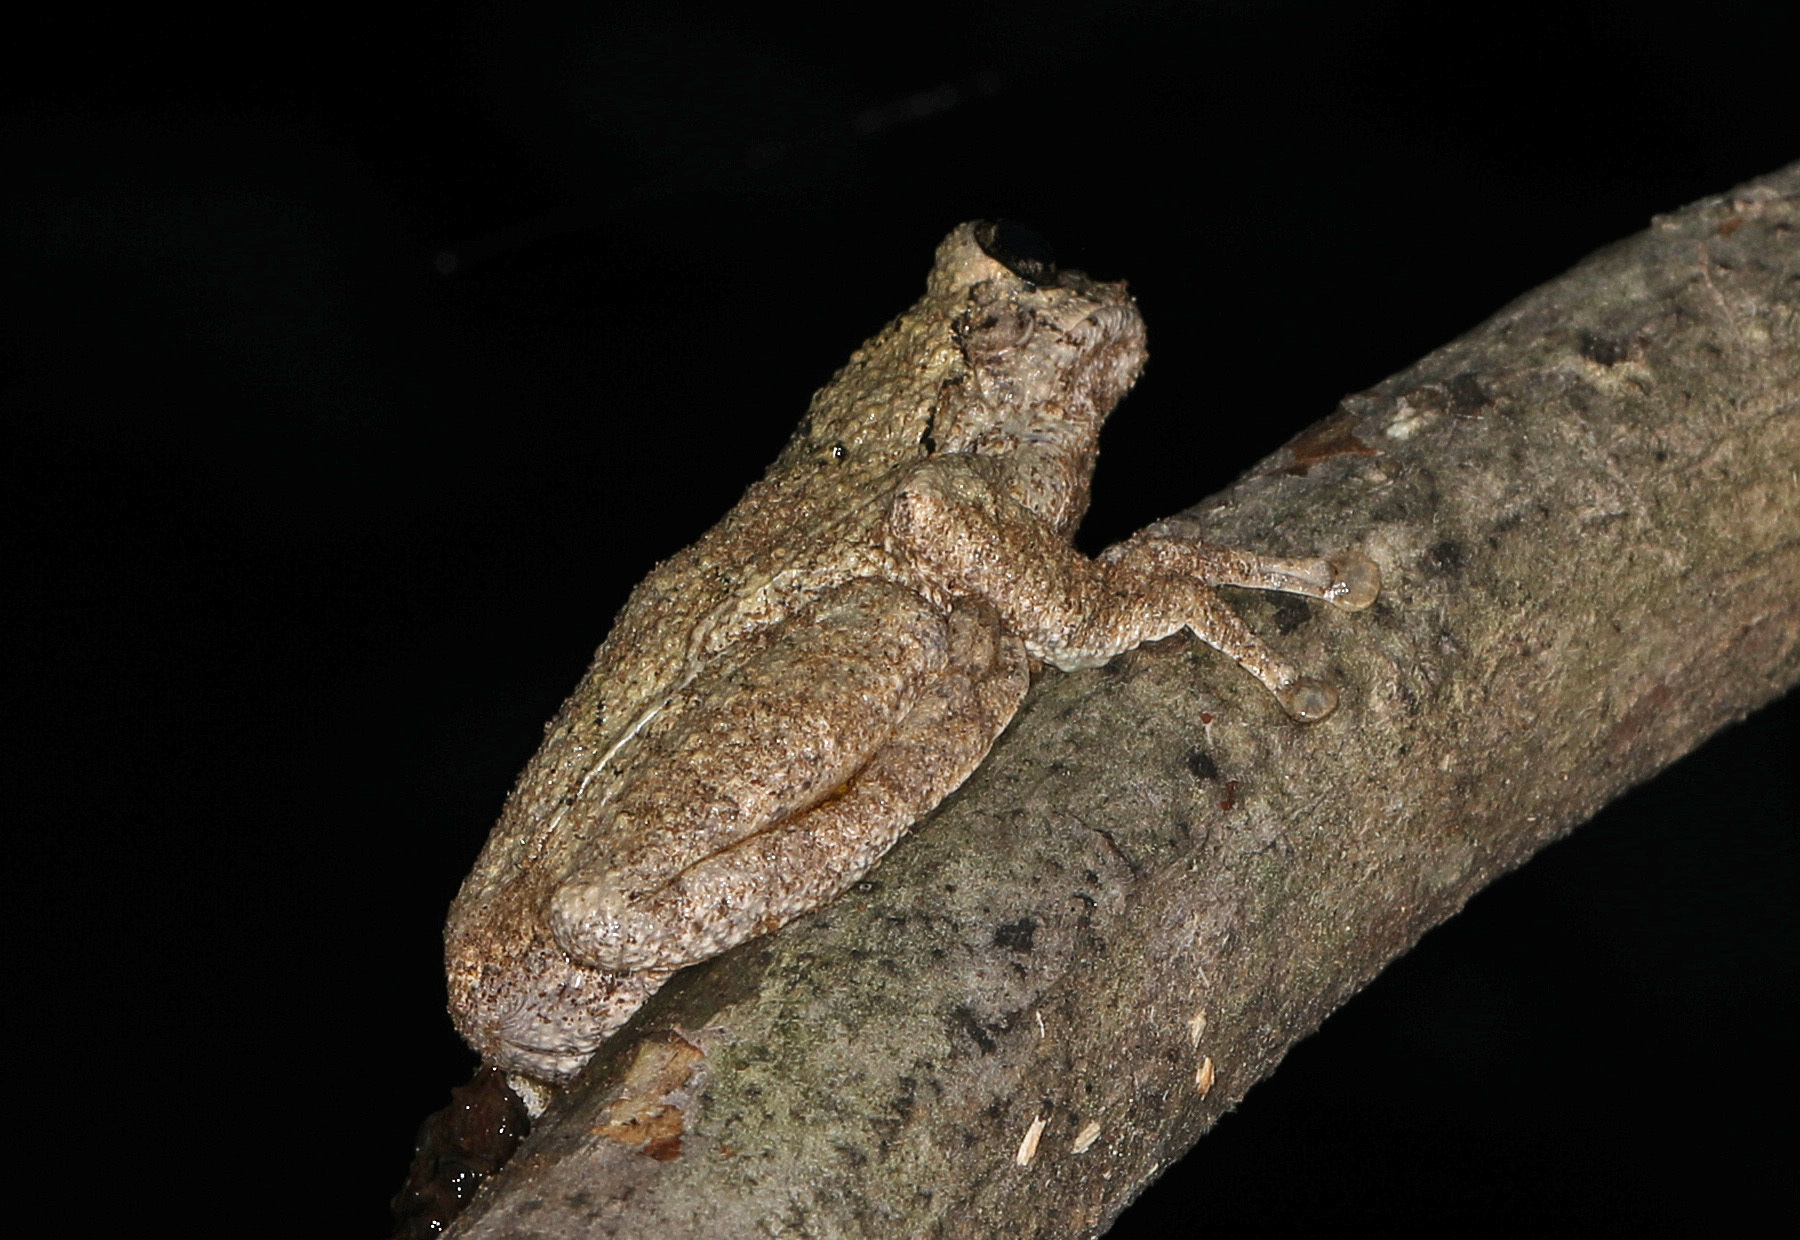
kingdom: Animalia
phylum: Chordata
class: Amphibia
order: Anura
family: Hylidae
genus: Dryophytes
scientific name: Dryophytes chrysoscelis
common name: Cope's gray treefrog
